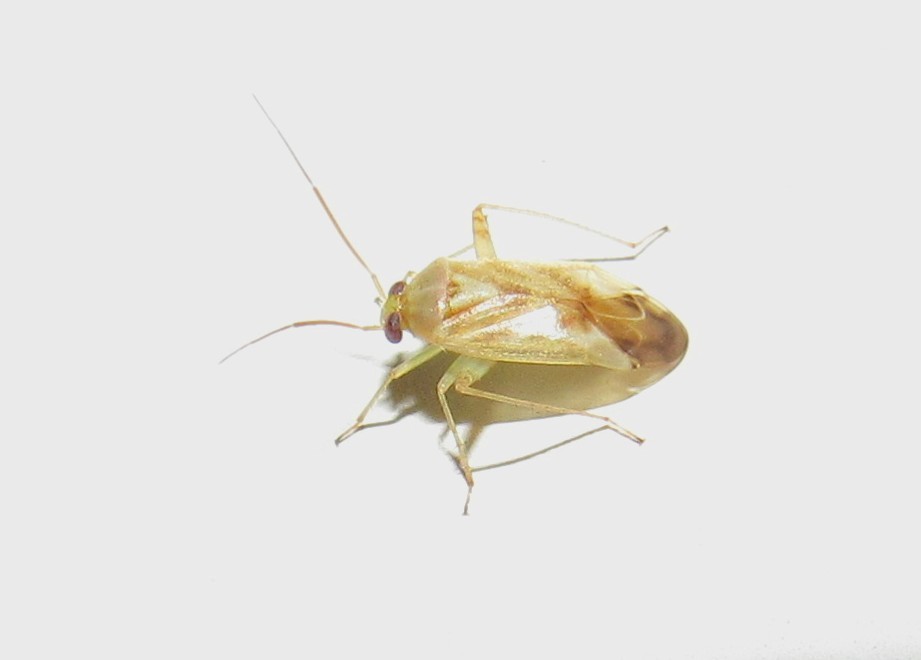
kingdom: Animalia
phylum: Arthropoda
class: Insecta
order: Hemiptera
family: Miridae
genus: Taylorilygus
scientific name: Taylorilygus apicalis
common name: Plant bug
